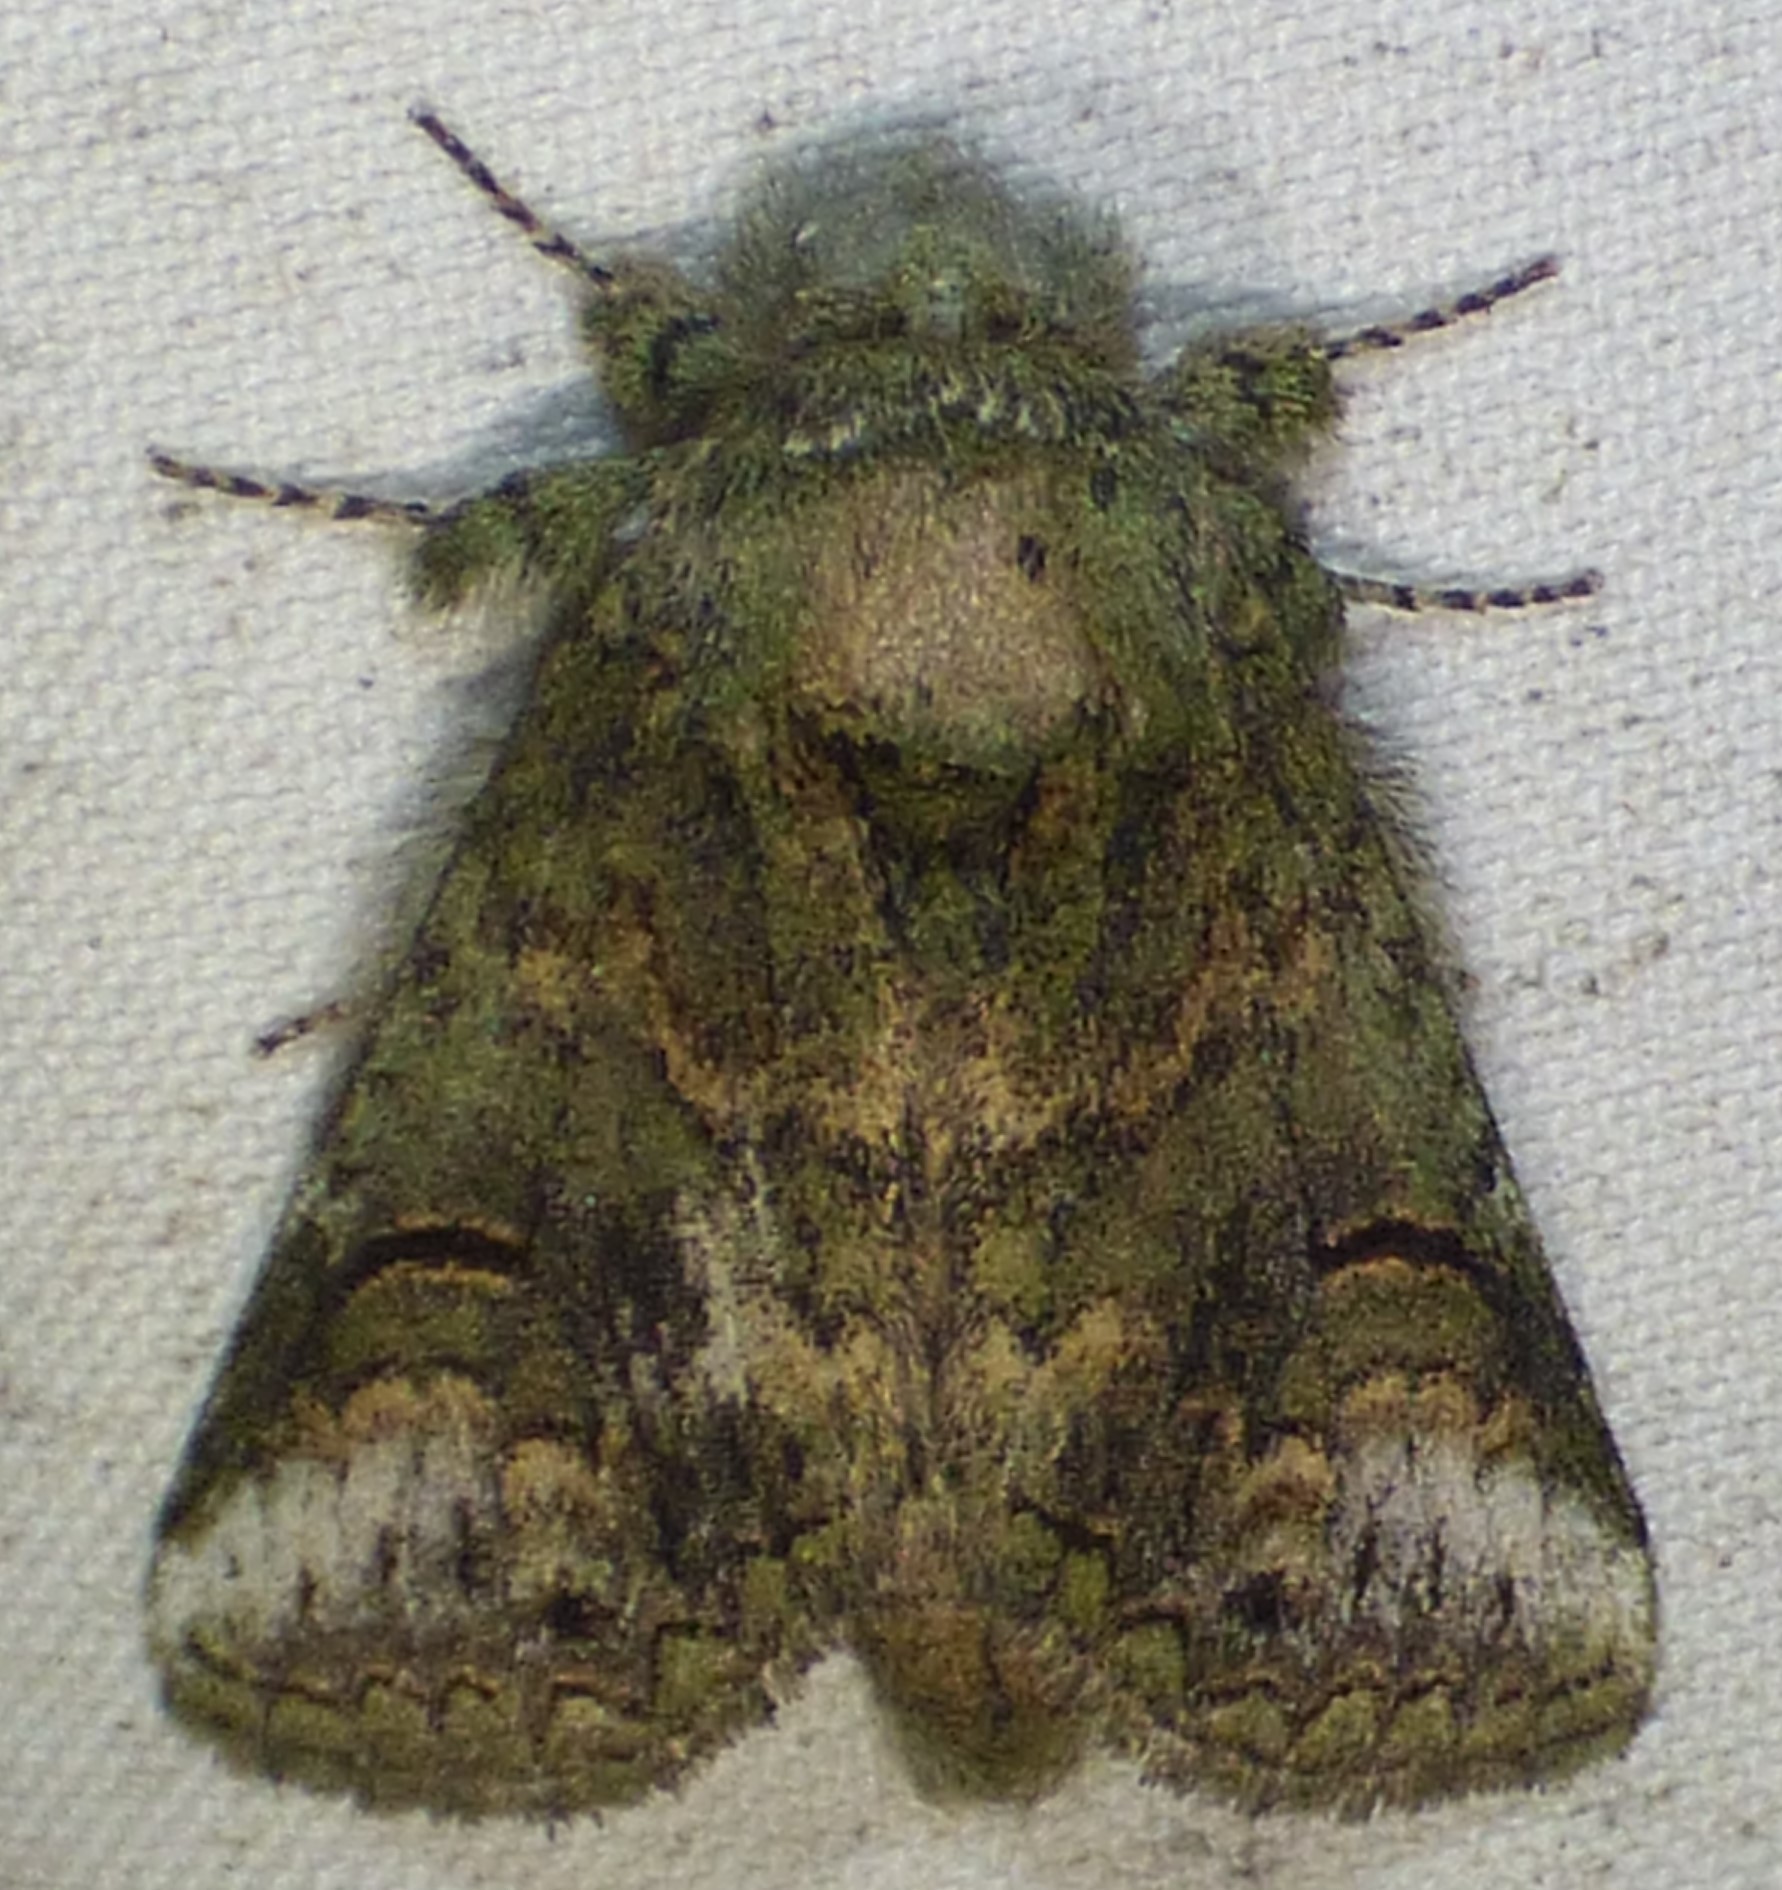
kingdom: Animalia
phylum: Arthropoda
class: Insecta
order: Lepidoptera
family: Notodontidae
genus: Rifargia
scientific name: Rifargia
